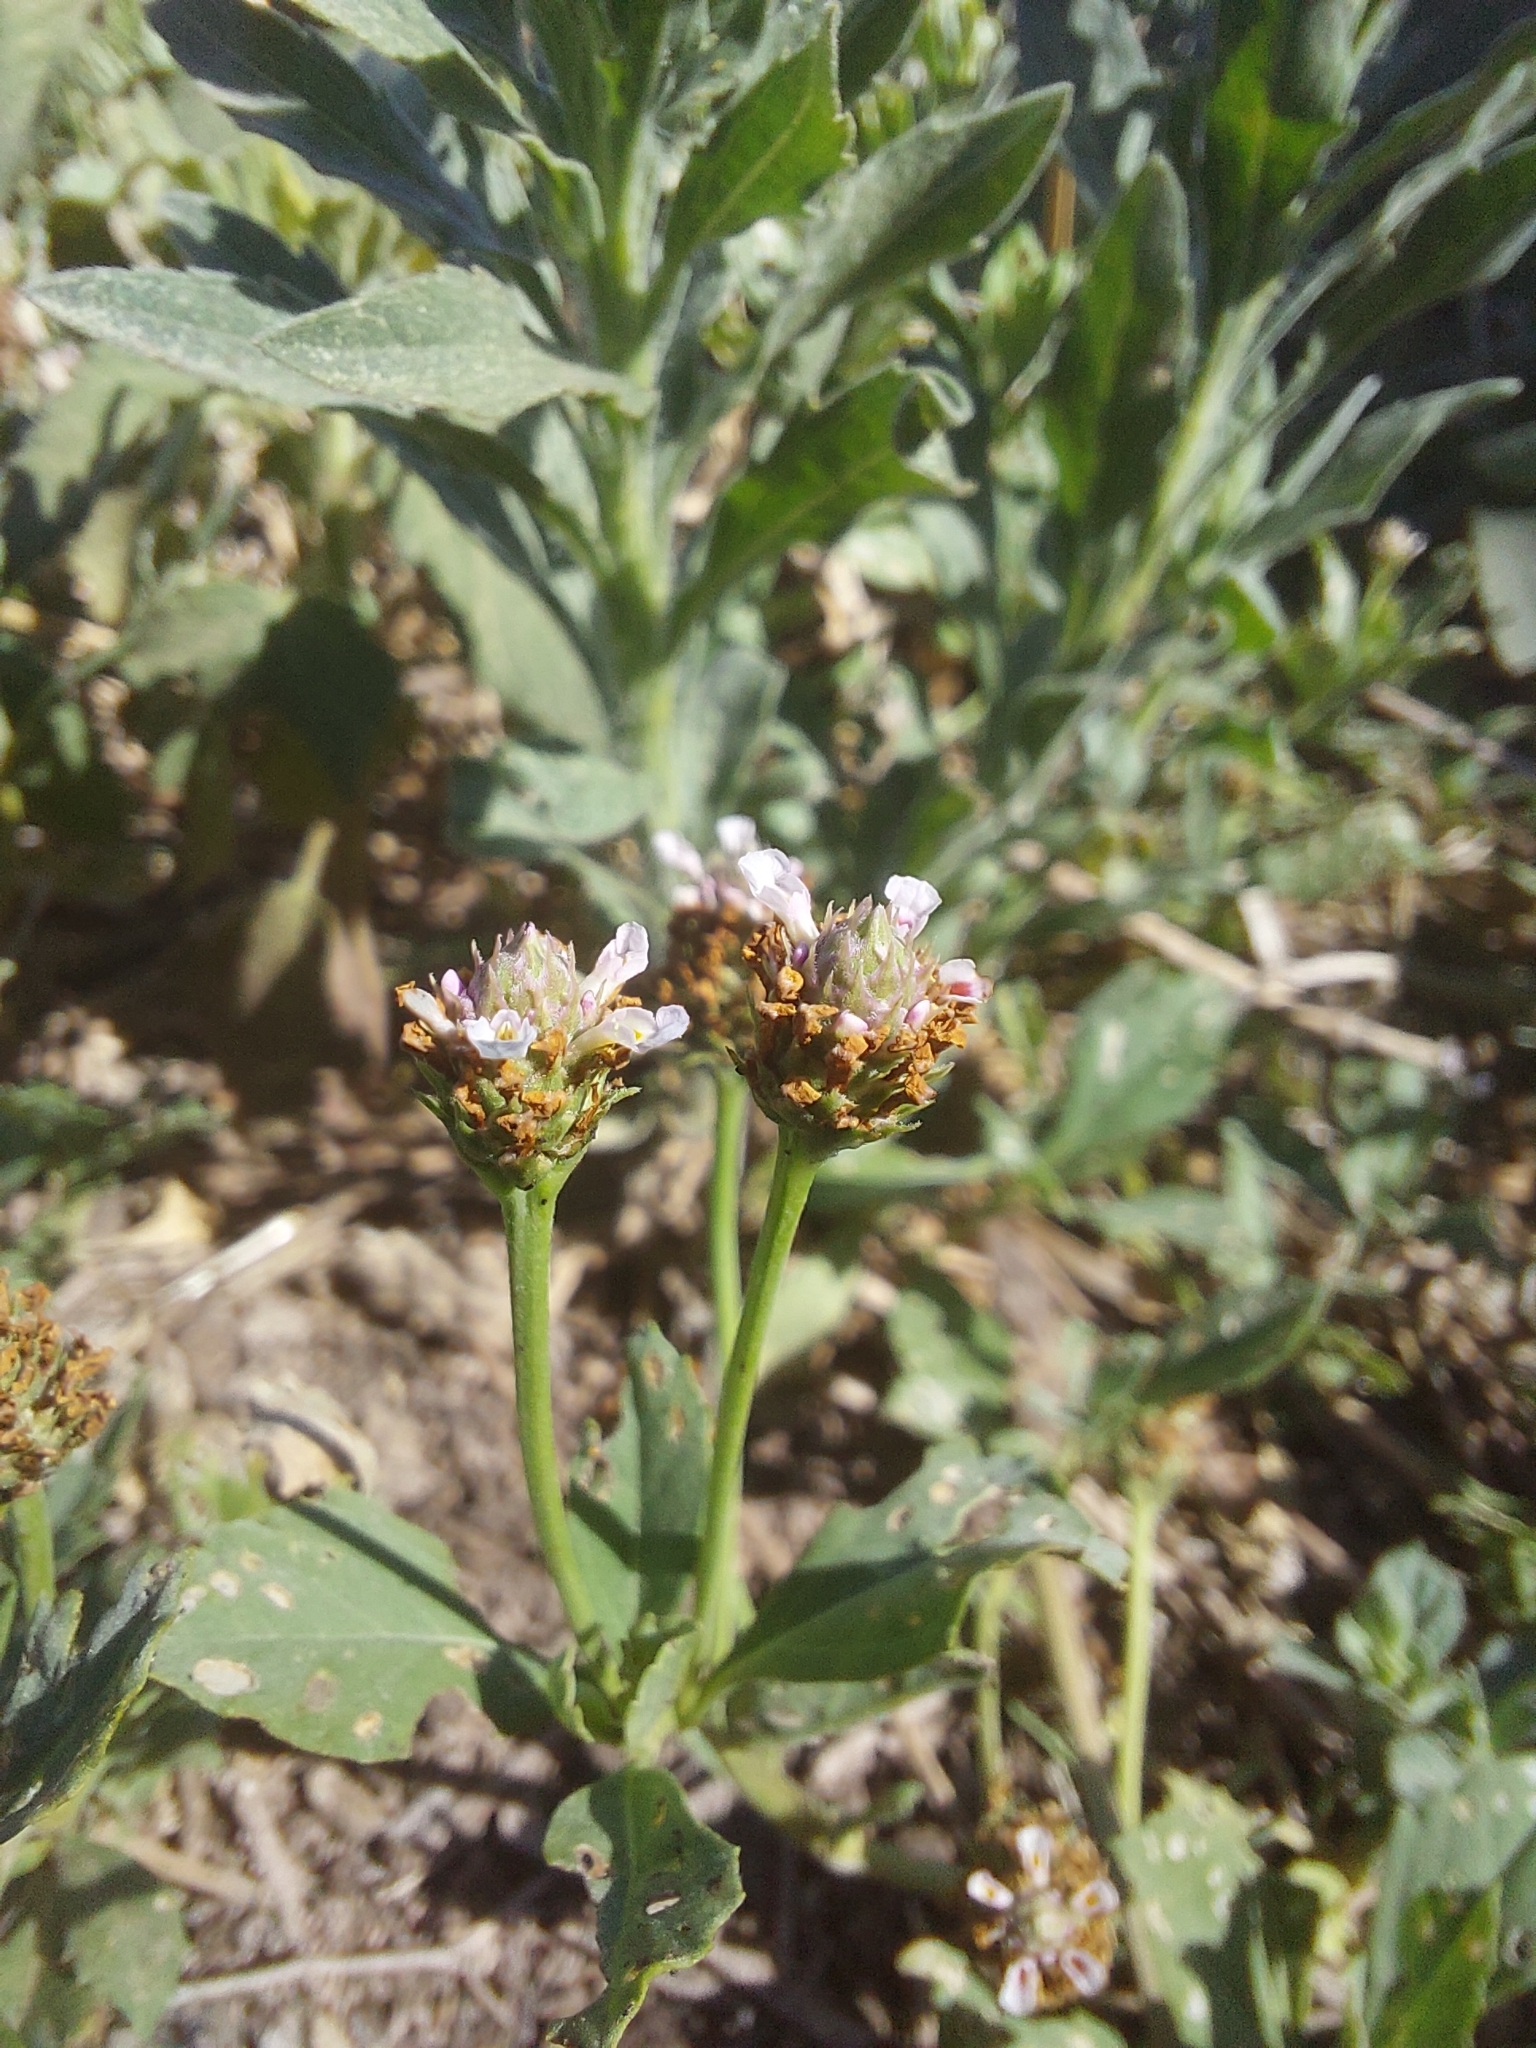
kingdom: Plantae
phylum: Tracheophyta
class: Magnoliopsida
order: Lamiales
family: Verbenaceae
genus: Phyla
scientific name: Phyla nodiflora
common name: Frogfruit
